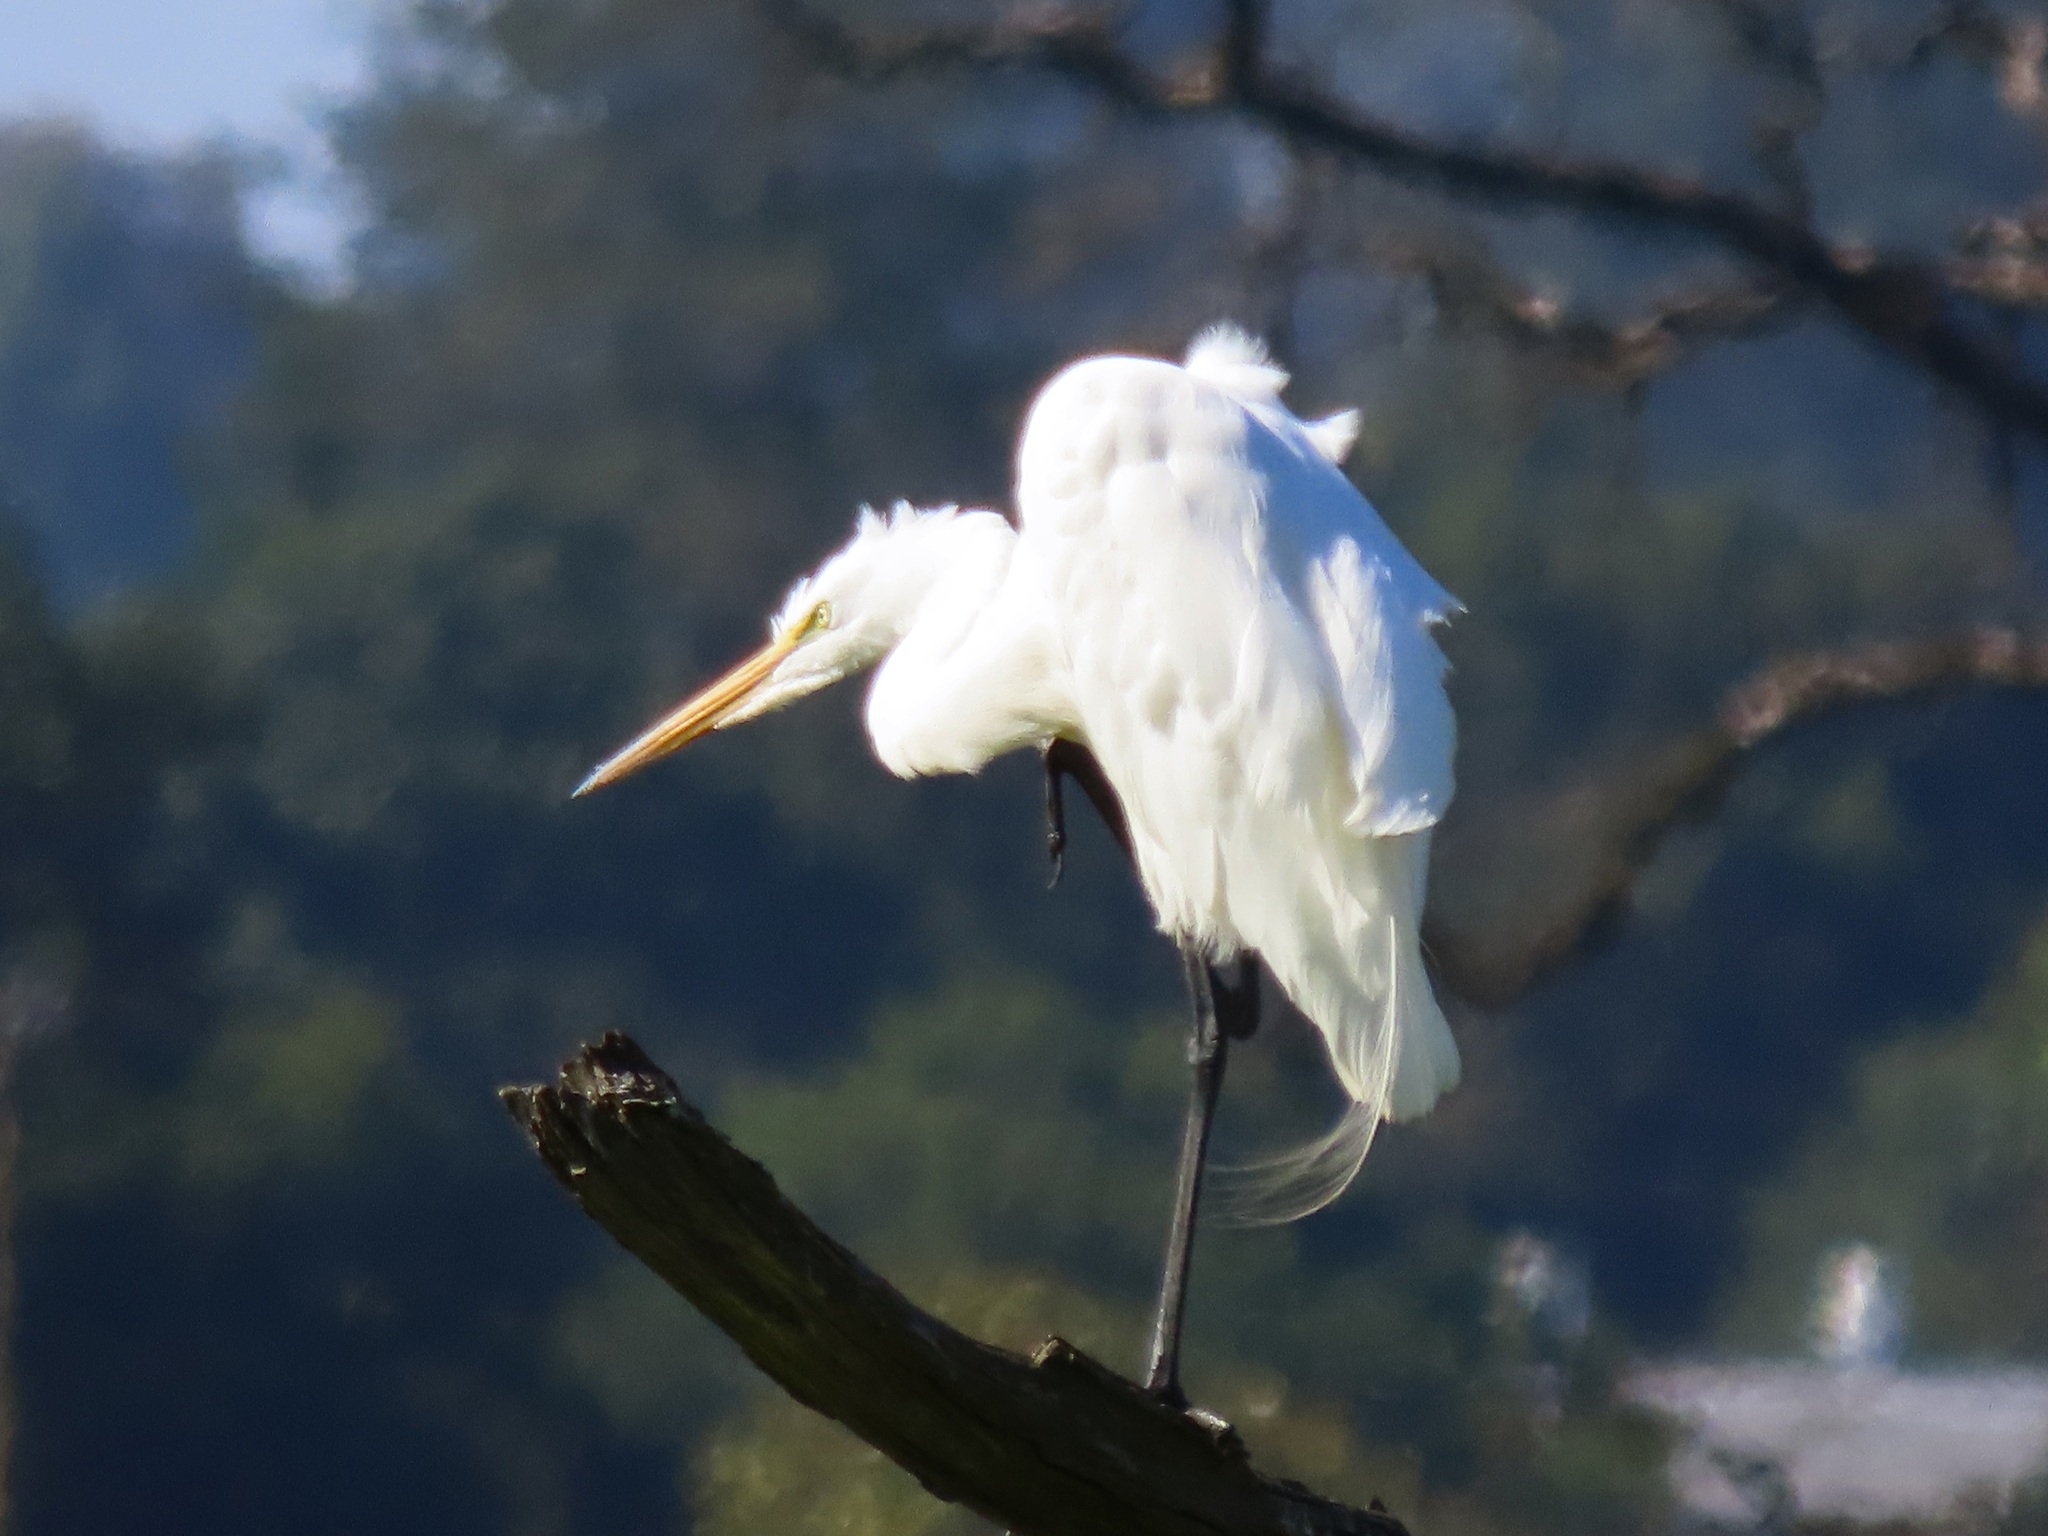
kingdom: Animalia
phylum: Chordata
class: Aves
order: Pelecaniformes
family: Ardeidae
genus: Ardea
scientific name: Ardea alba
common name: Great egret
